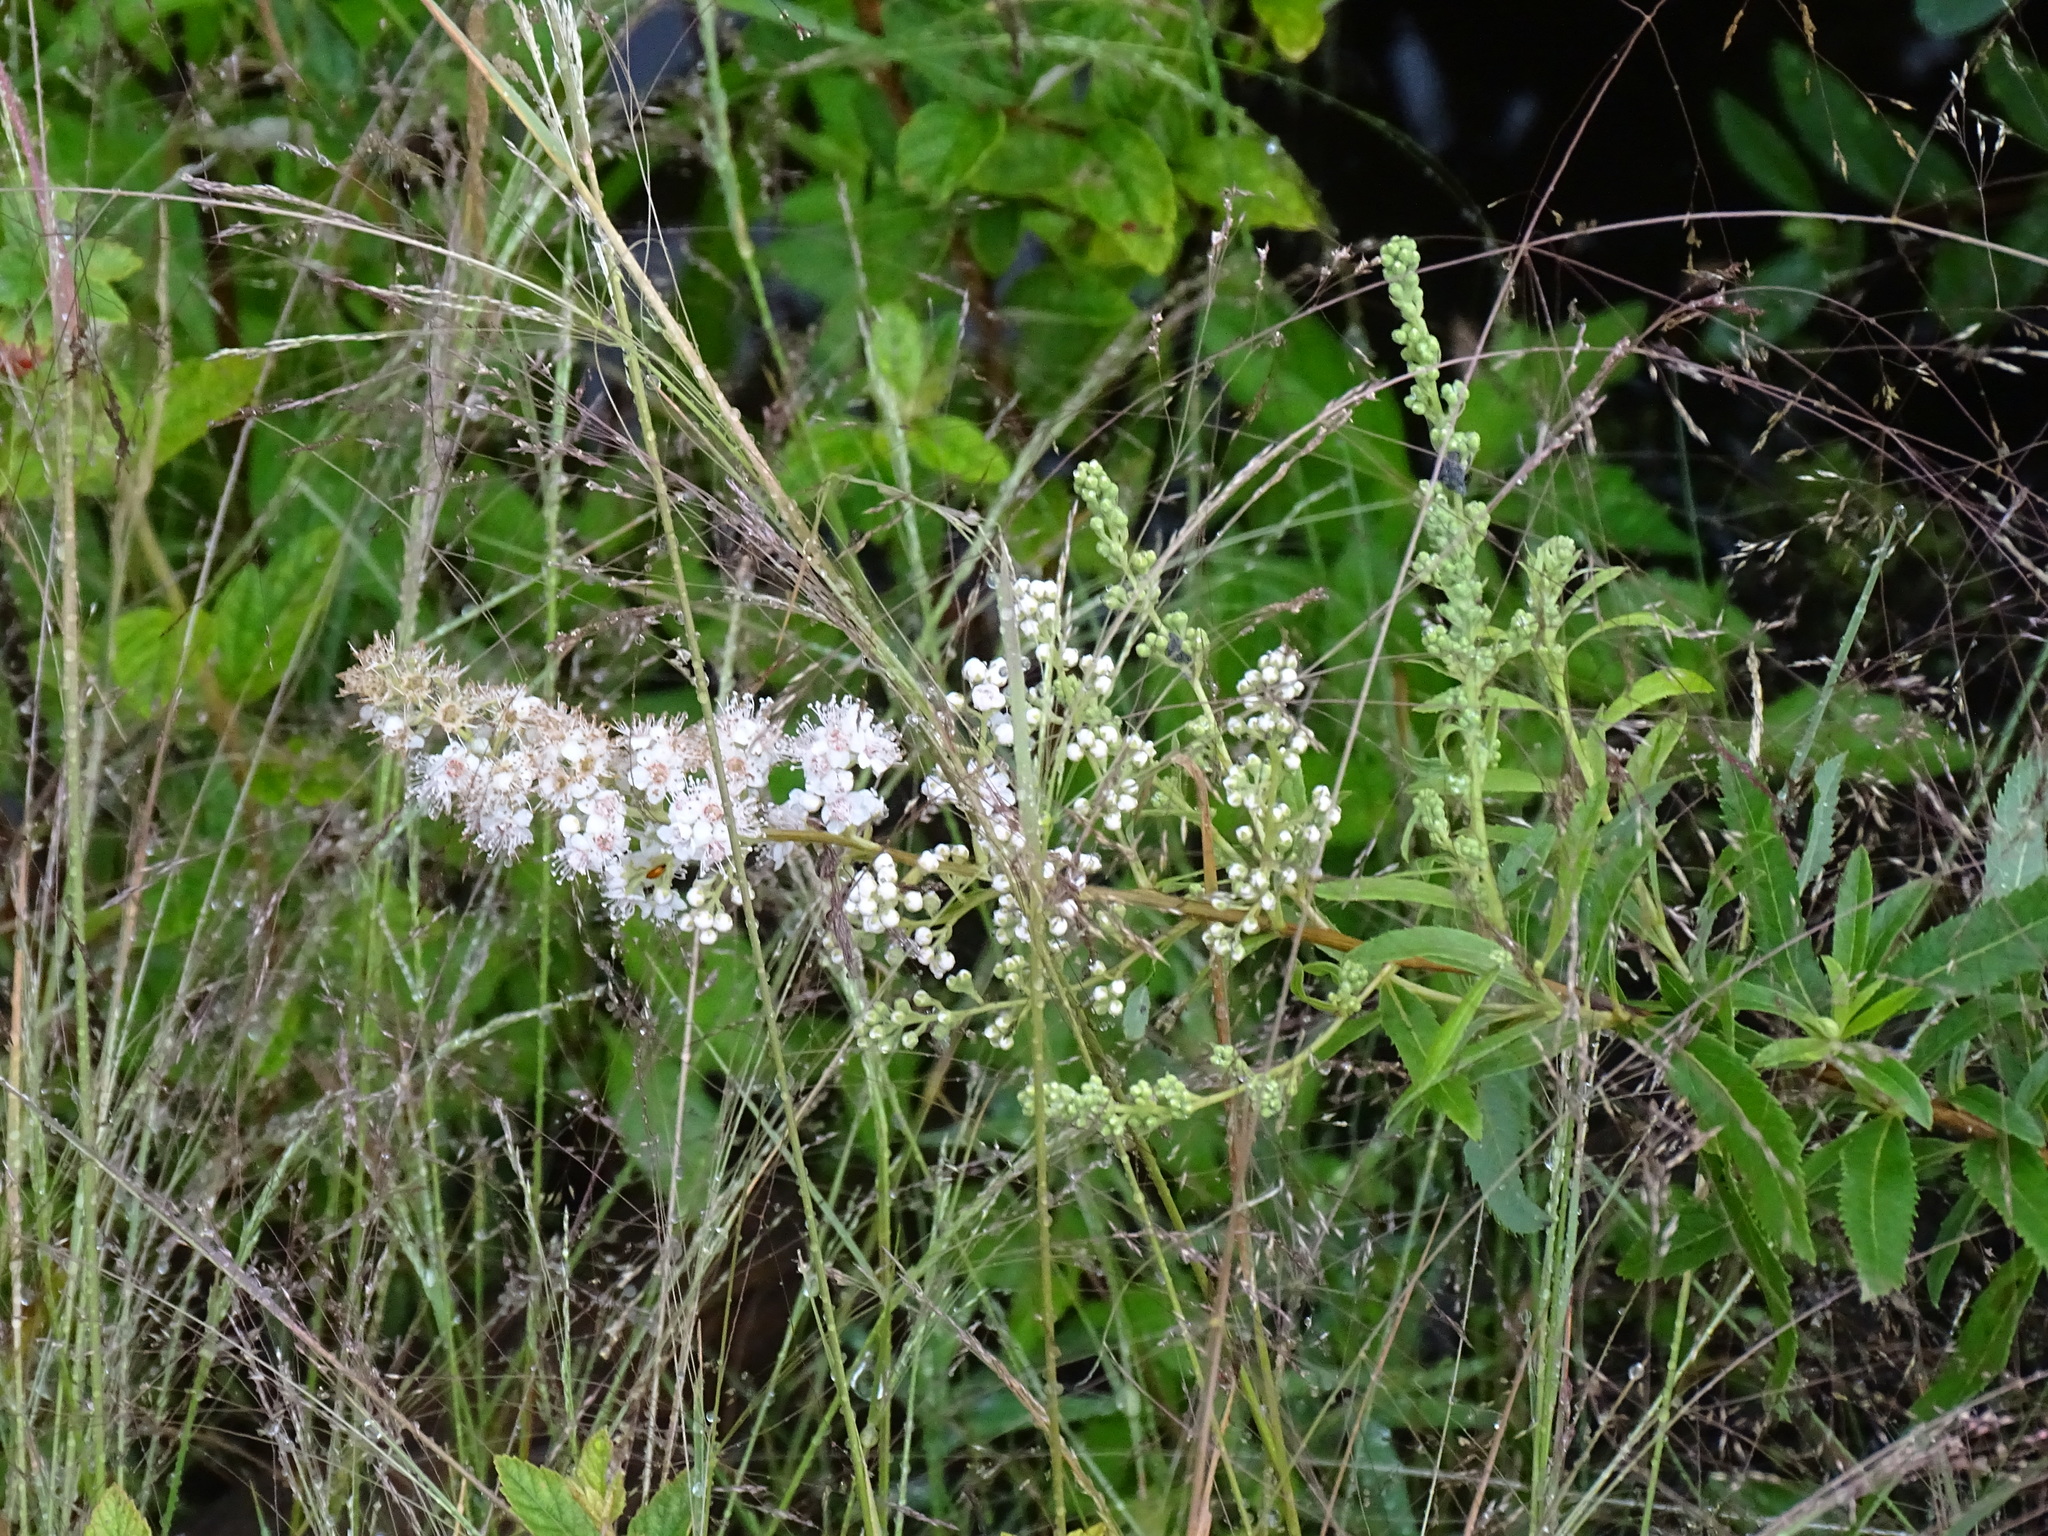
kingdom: Plantae
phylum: Tracheophyta
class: Magnoliopsida
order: Rosales
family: Rosaceae
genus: Spiraea
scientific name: Spiraea alba
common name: Pale bridewort
